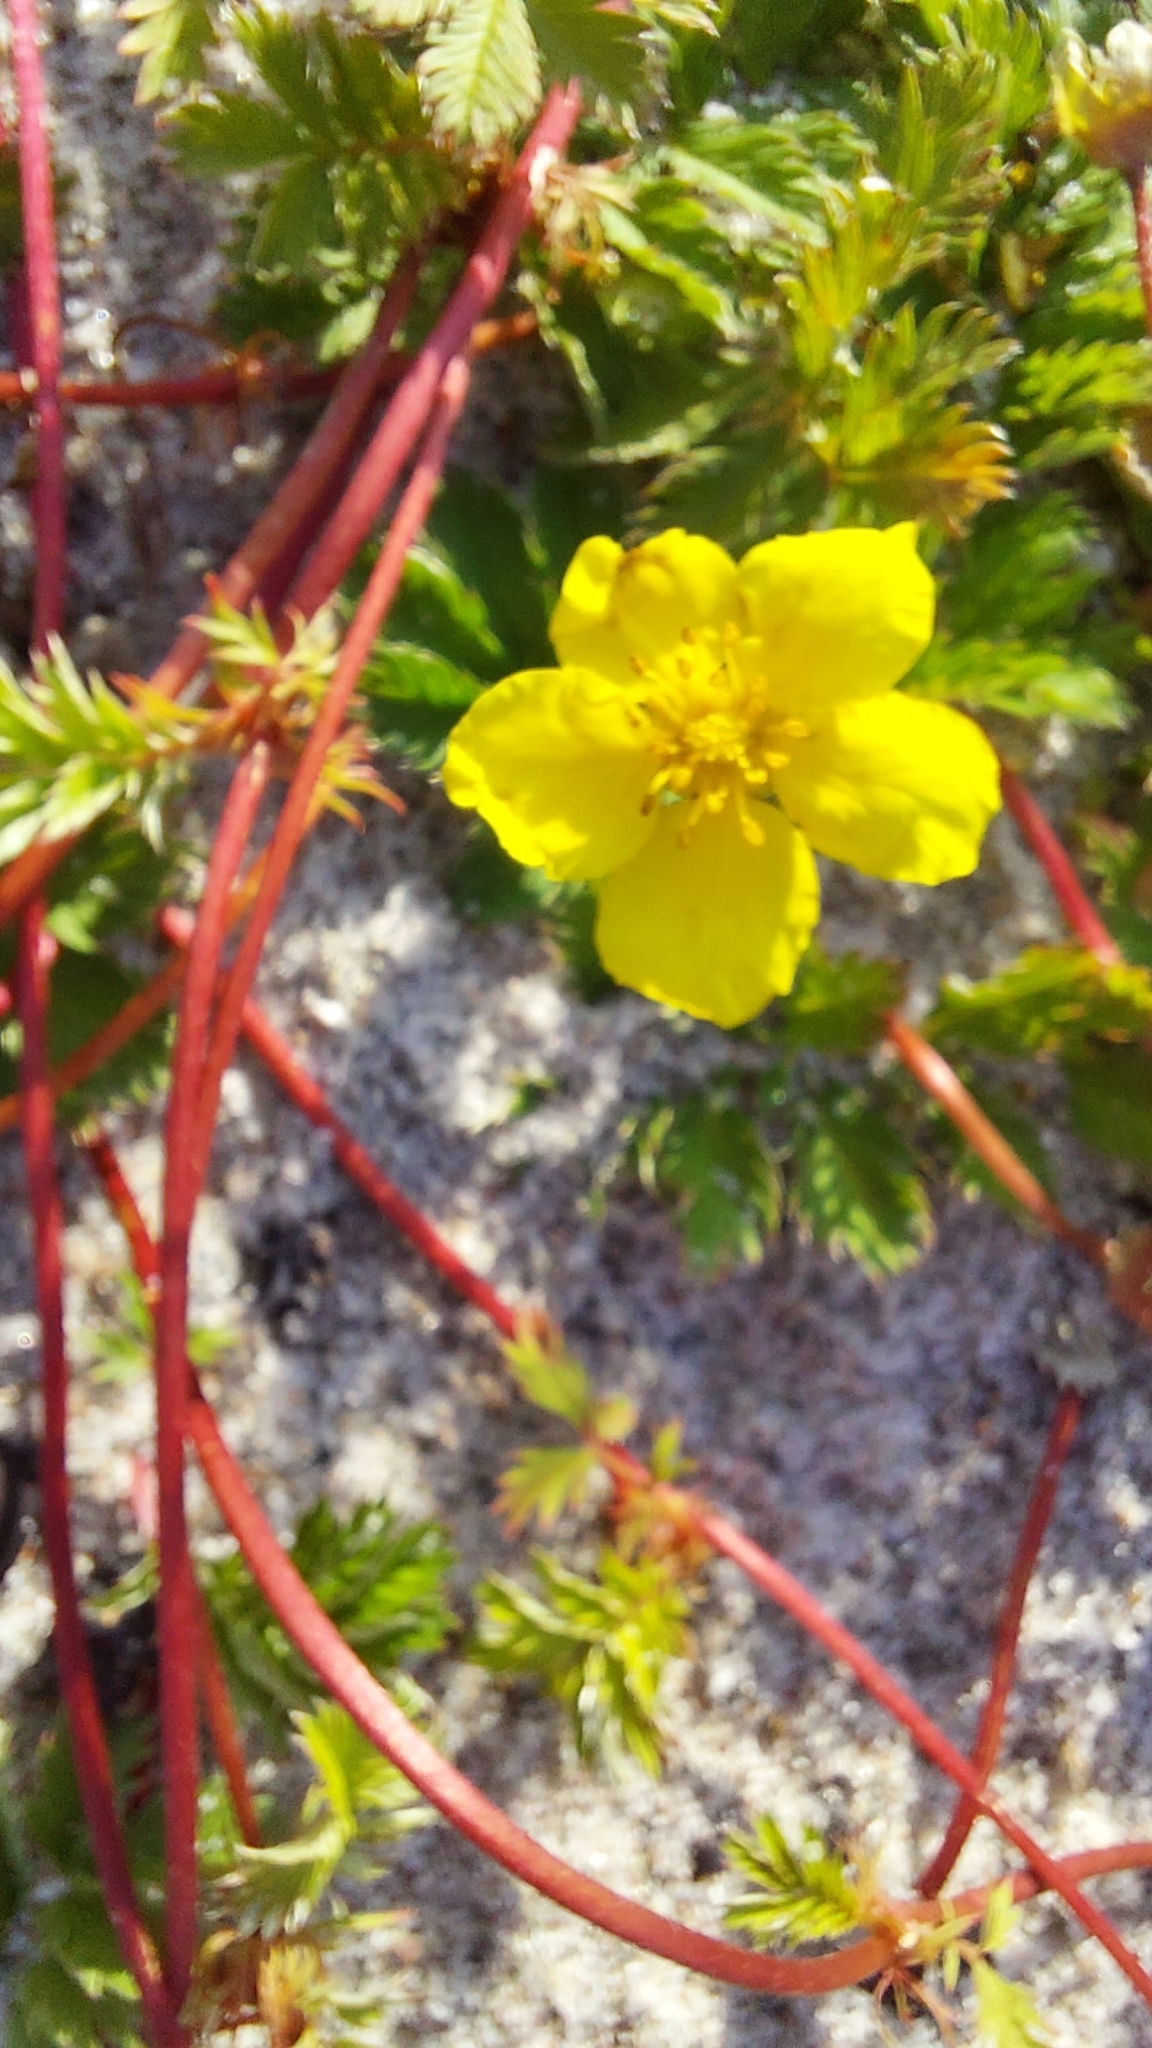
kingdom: Plantae
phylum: Tracheophyta
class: Magnoliopsida
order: Rosales
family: Rosaceae
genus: Argentina
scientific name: Argentina anserina
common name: Common silverweed
